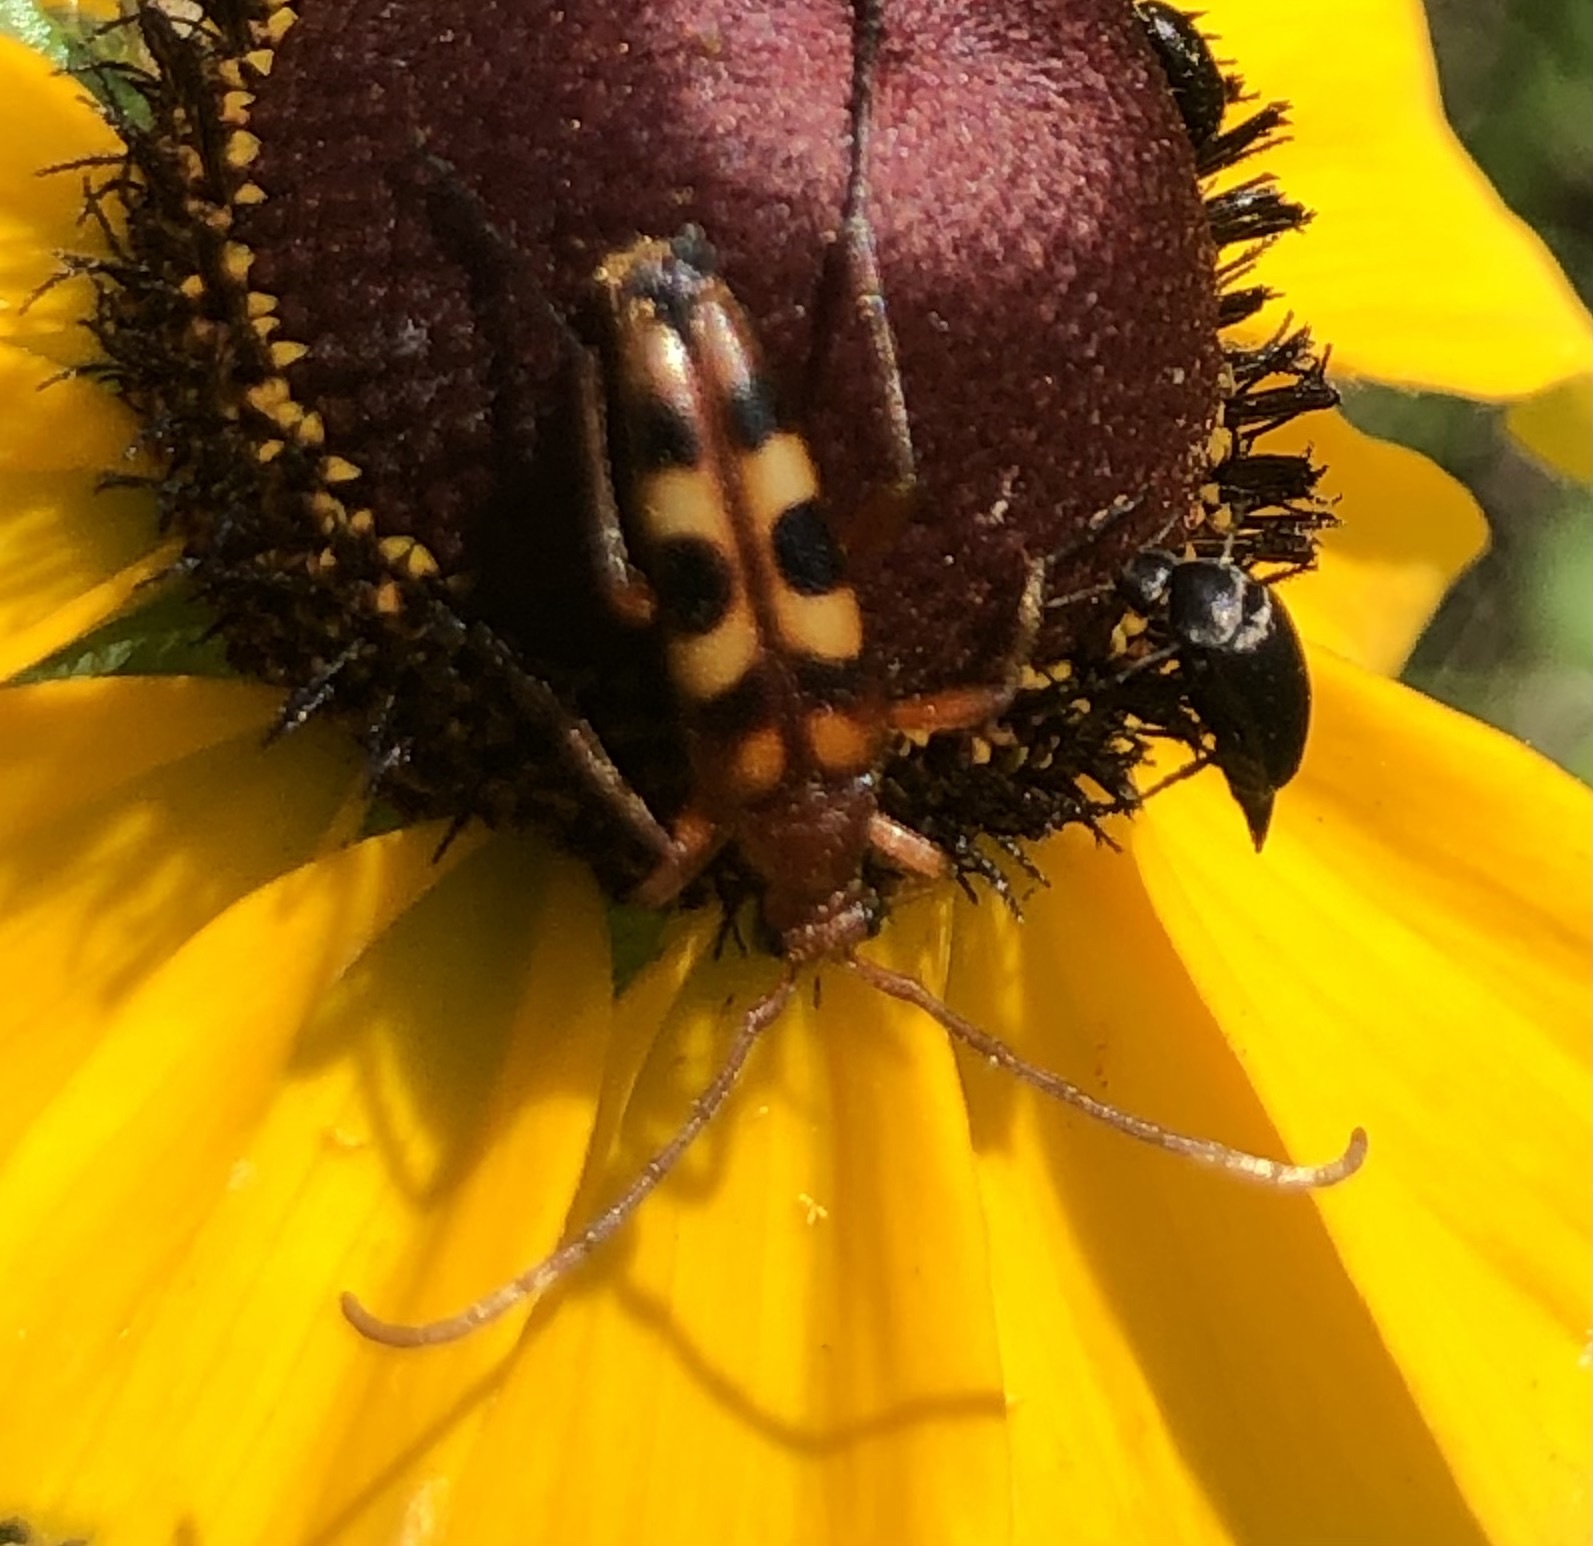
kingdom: Animalia
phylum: Arthropoda
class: Insecta
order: Coleoptera
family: Cerambycidae
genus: Strangalia
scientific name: Strangalia sexnotata
